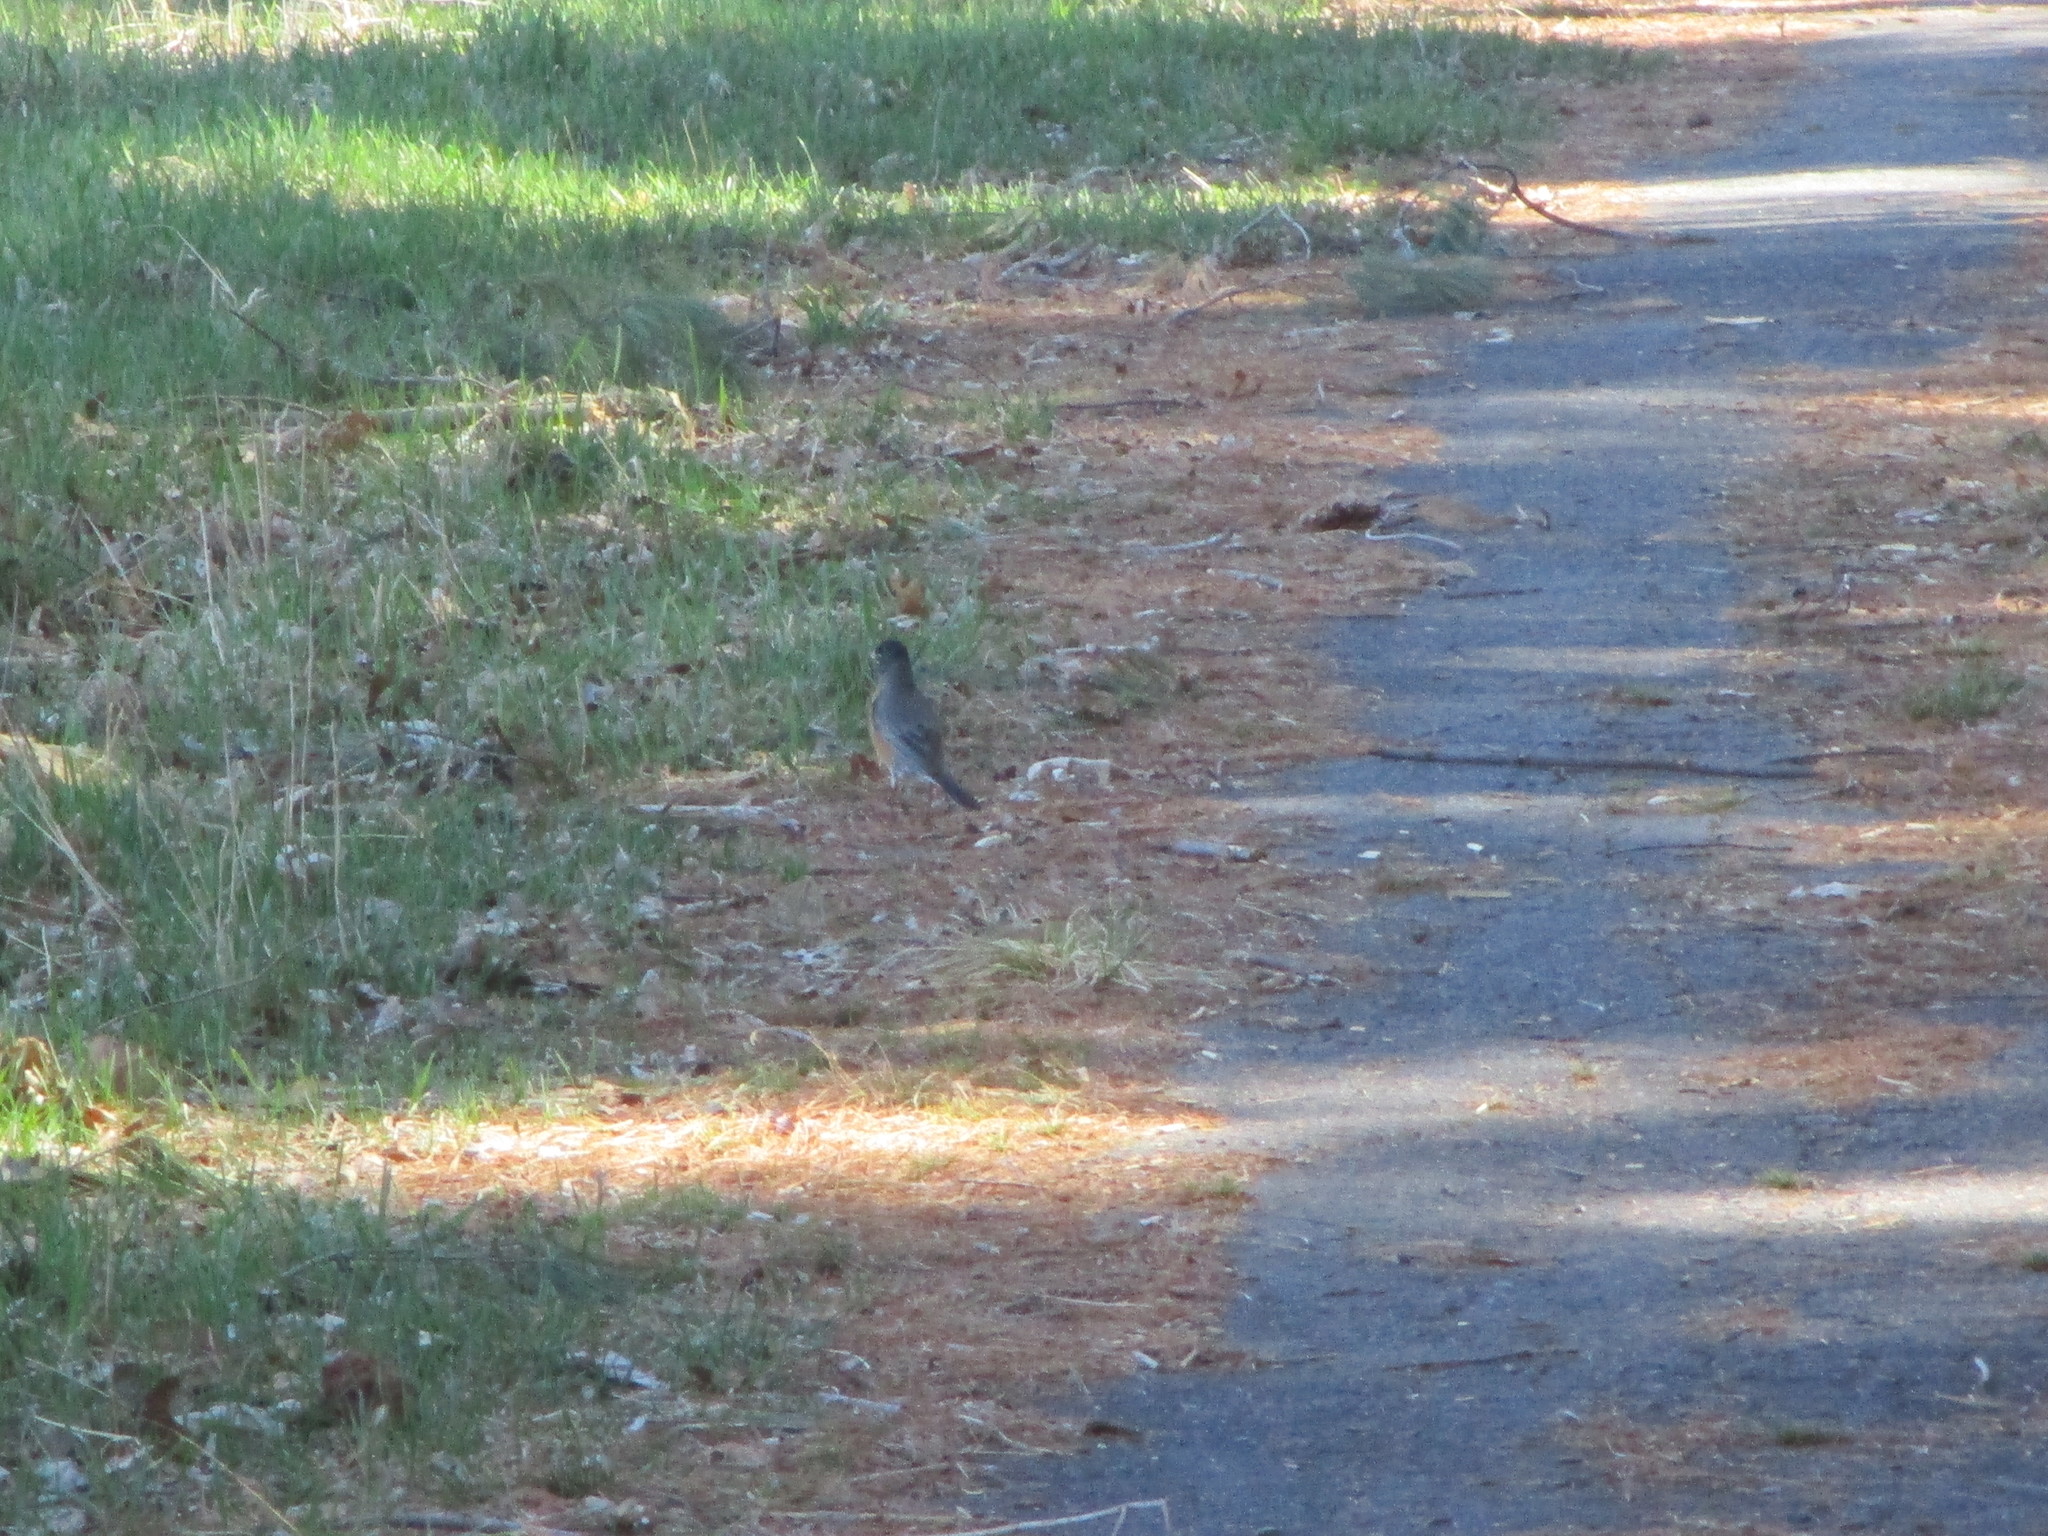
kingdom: Animalia
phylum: Chordata
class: Aves
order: Passeriformes
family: Turdidae
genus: Turdus
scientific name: Turdus migratorius
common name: American robin
